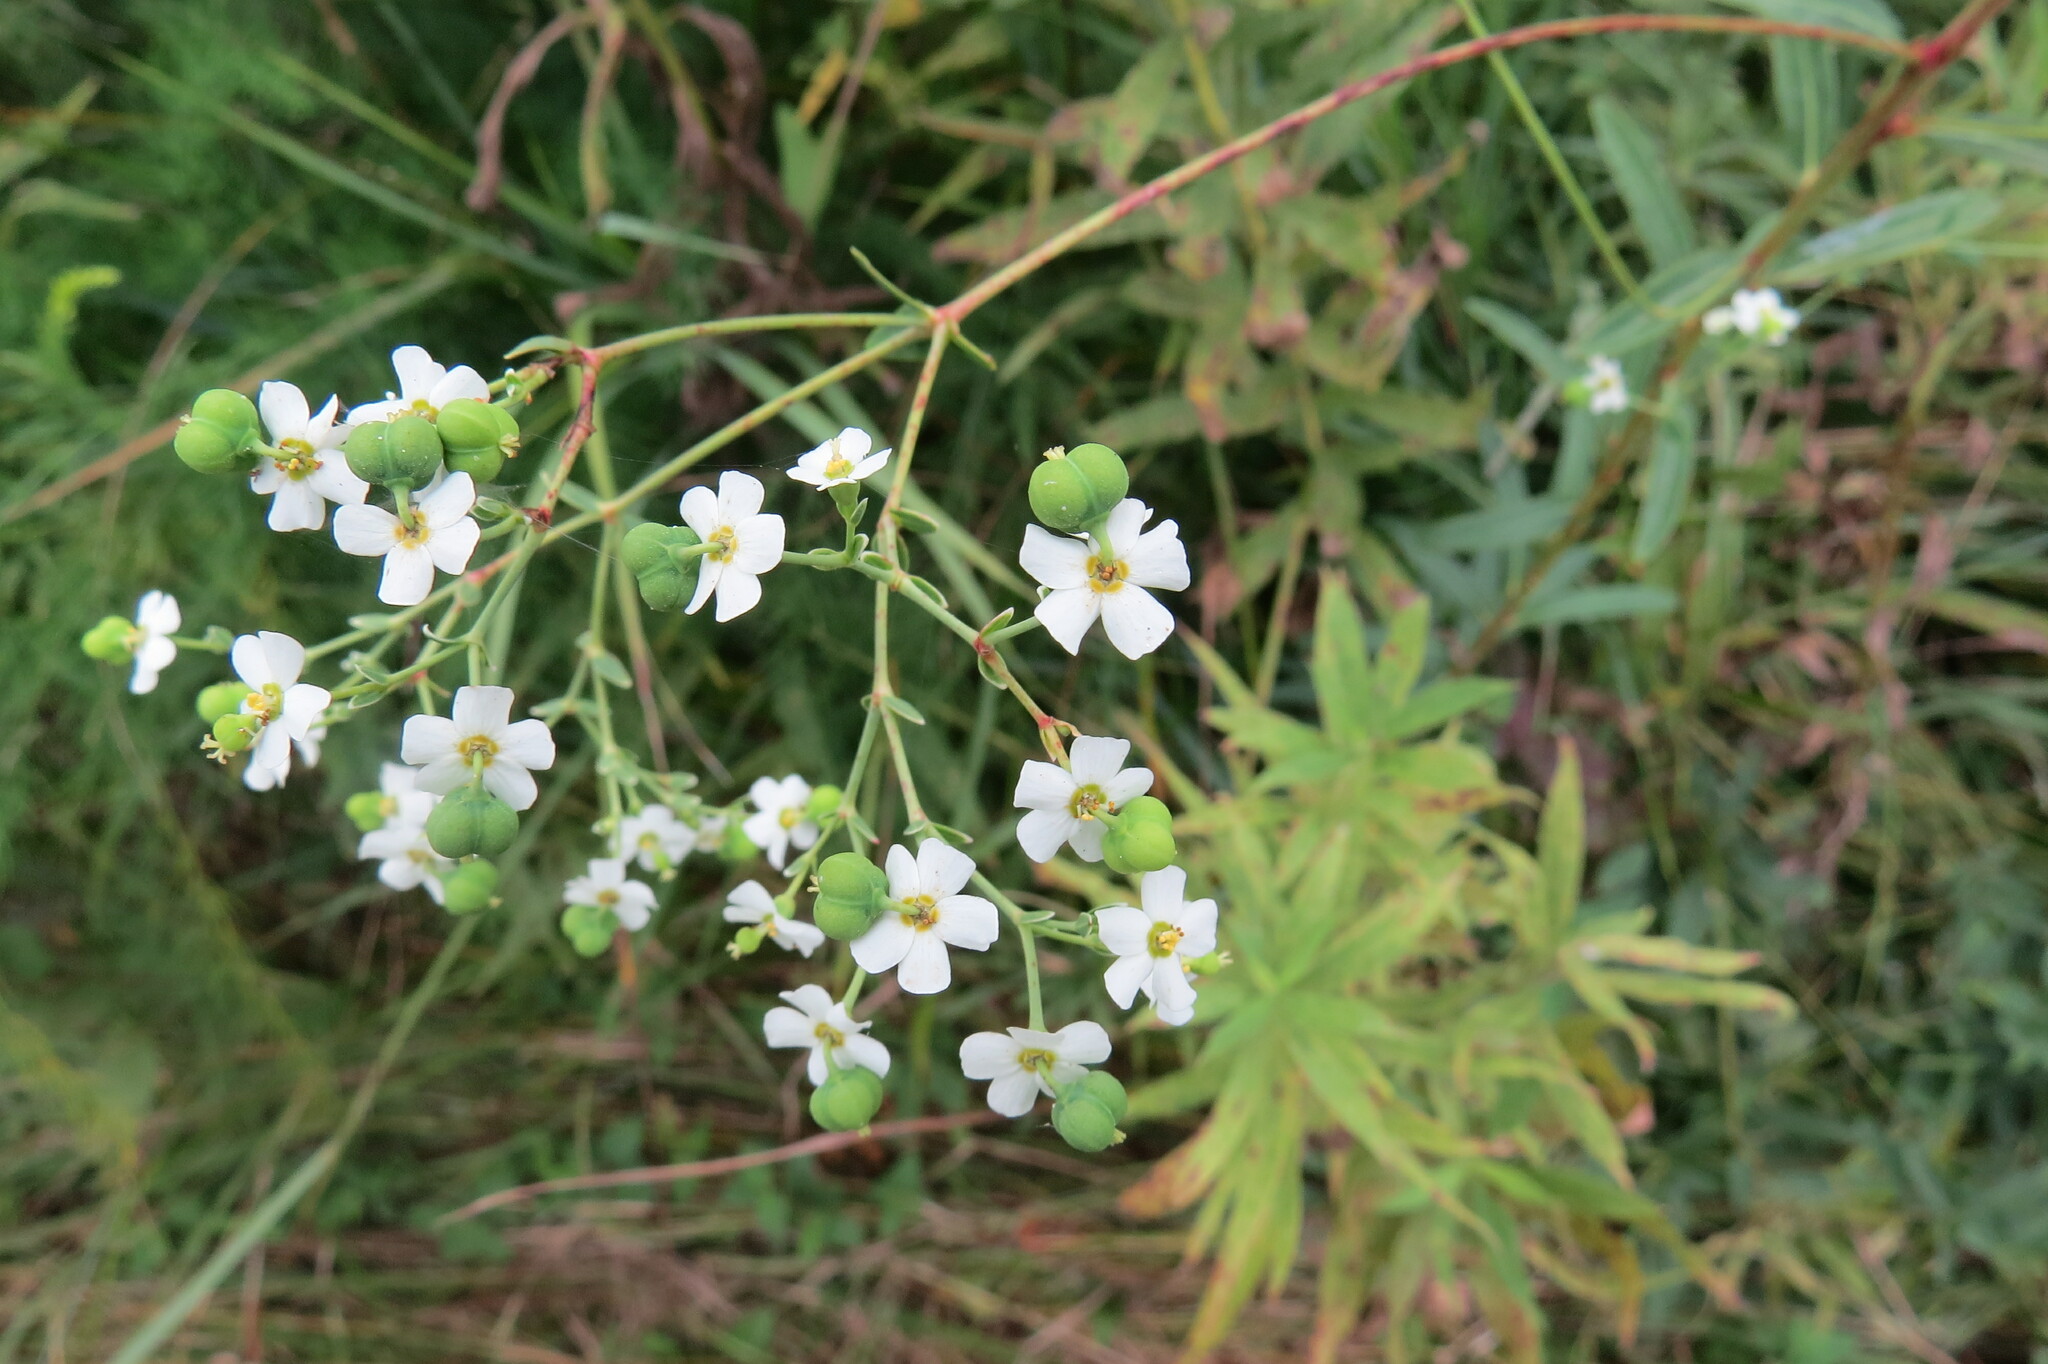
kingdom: Plantae
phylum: Tracheophyta
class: Magnoliopsida
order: Malpighiales
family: Euphorbiaceae
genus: Euphorbia
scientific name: Euphorbia corollata
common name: Flowering spurge
